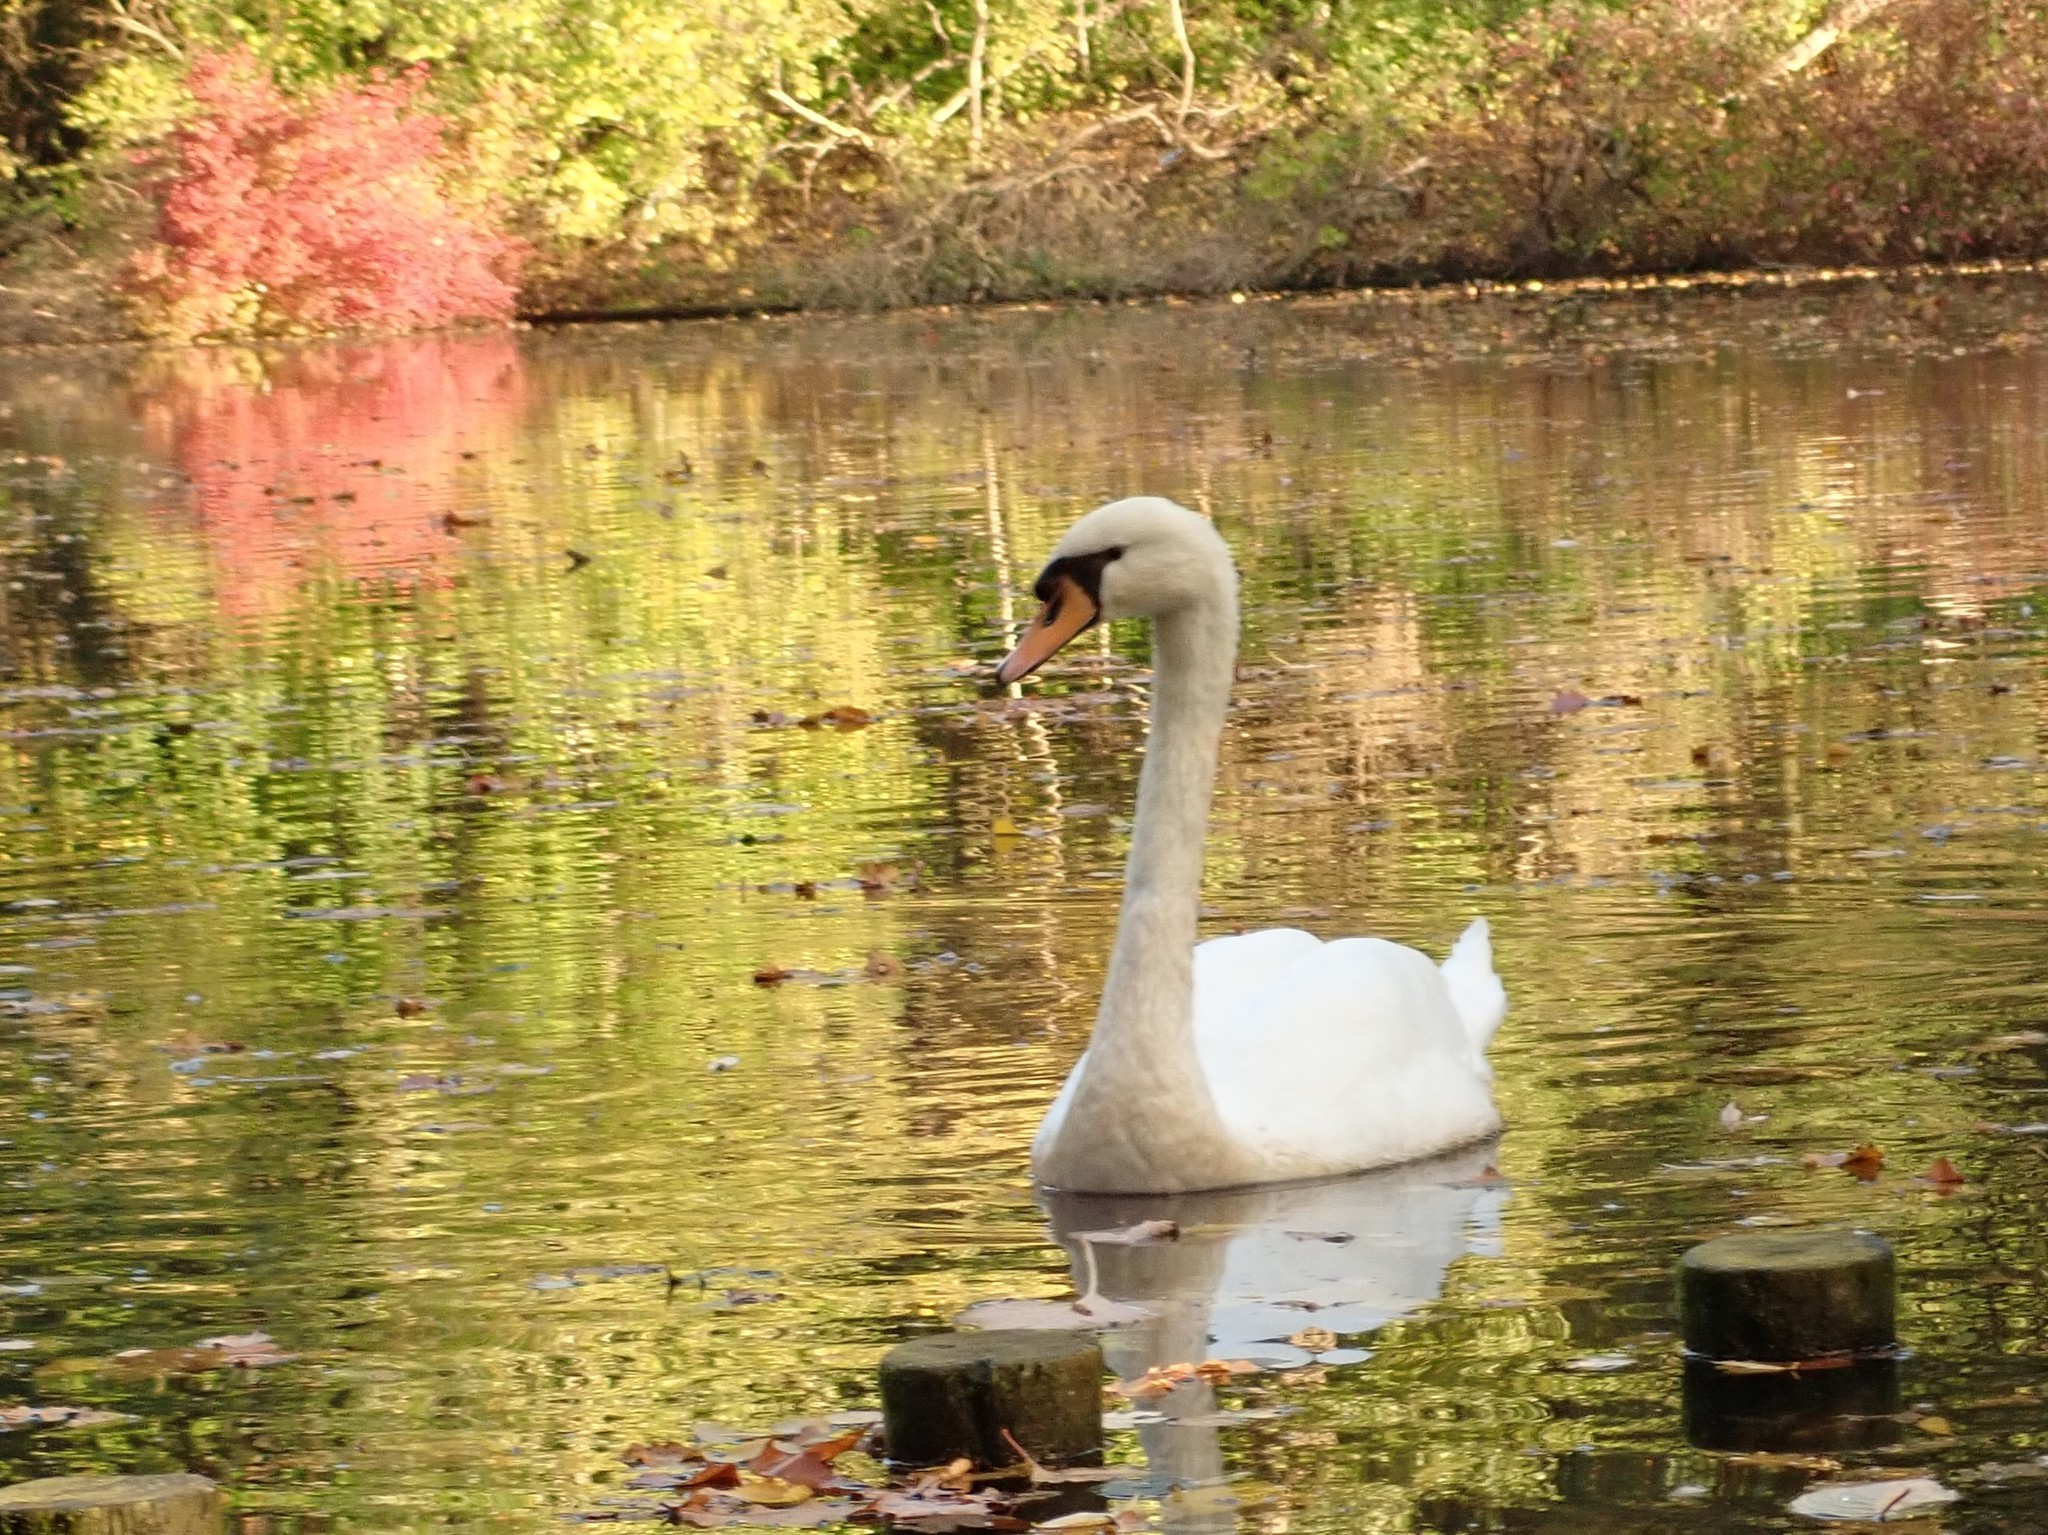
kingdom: Animalia
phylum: Chordata
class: Aves
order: Anseriformes
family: Anatidae
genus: Cygnus
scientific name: Cygnus olor
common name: Mute swan
